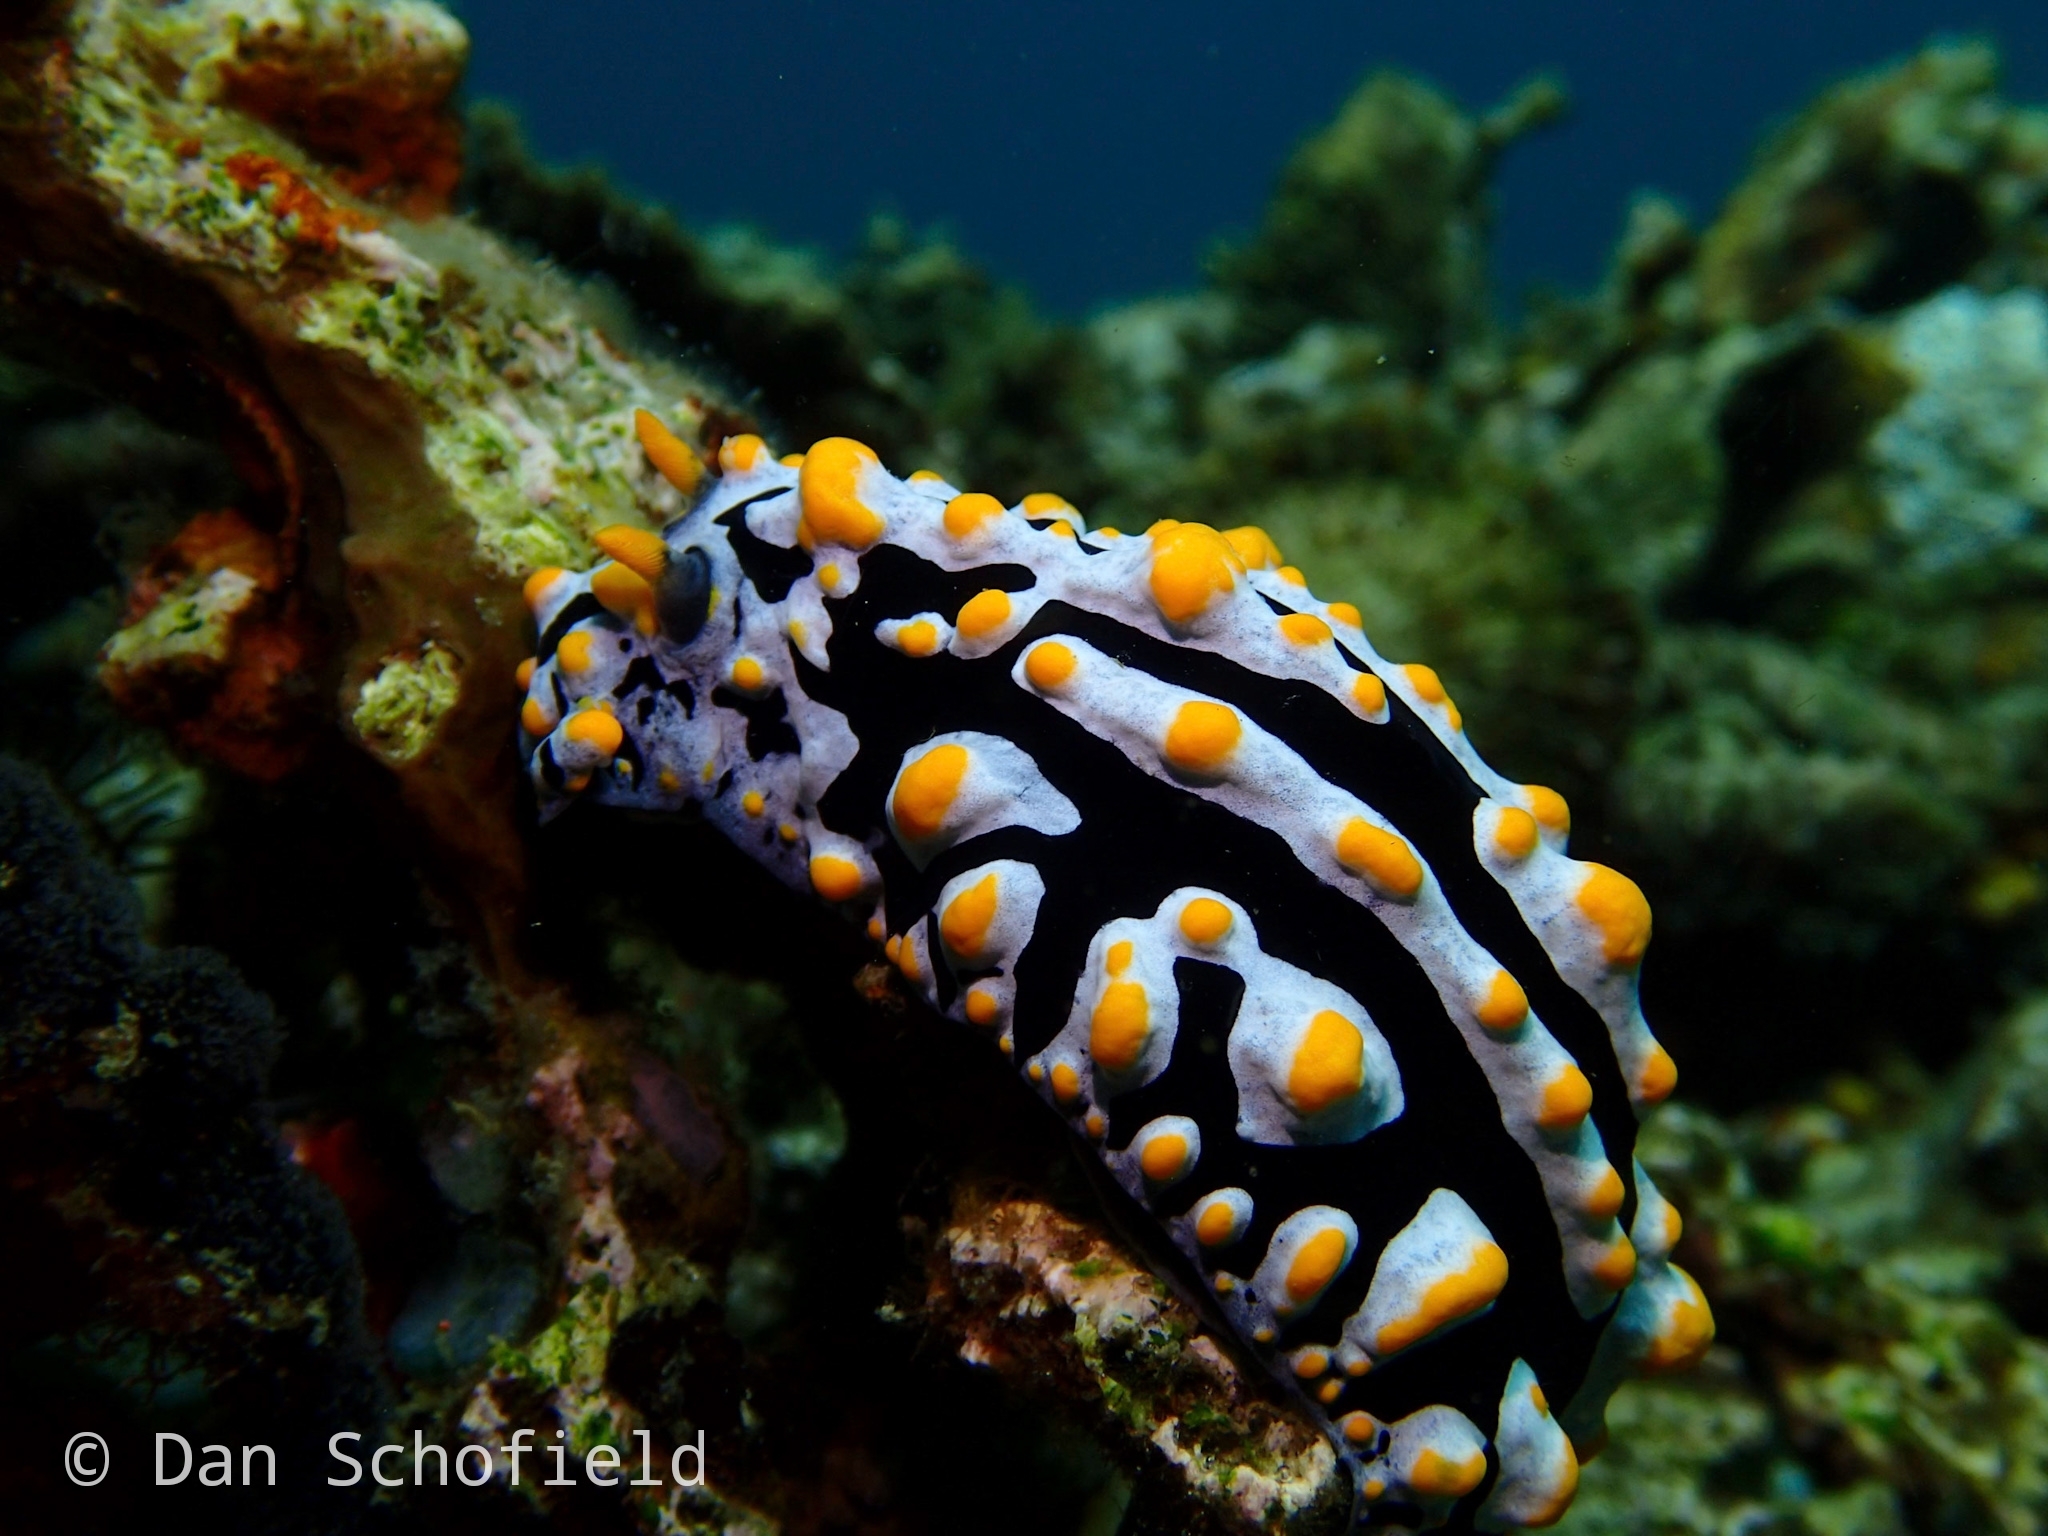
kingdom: Animalia
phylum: Mollusca
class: Gastropoda
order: Nudibranchia
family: Phyllidiidae
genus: Phyllidia
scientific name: Phyllidia varicosa
